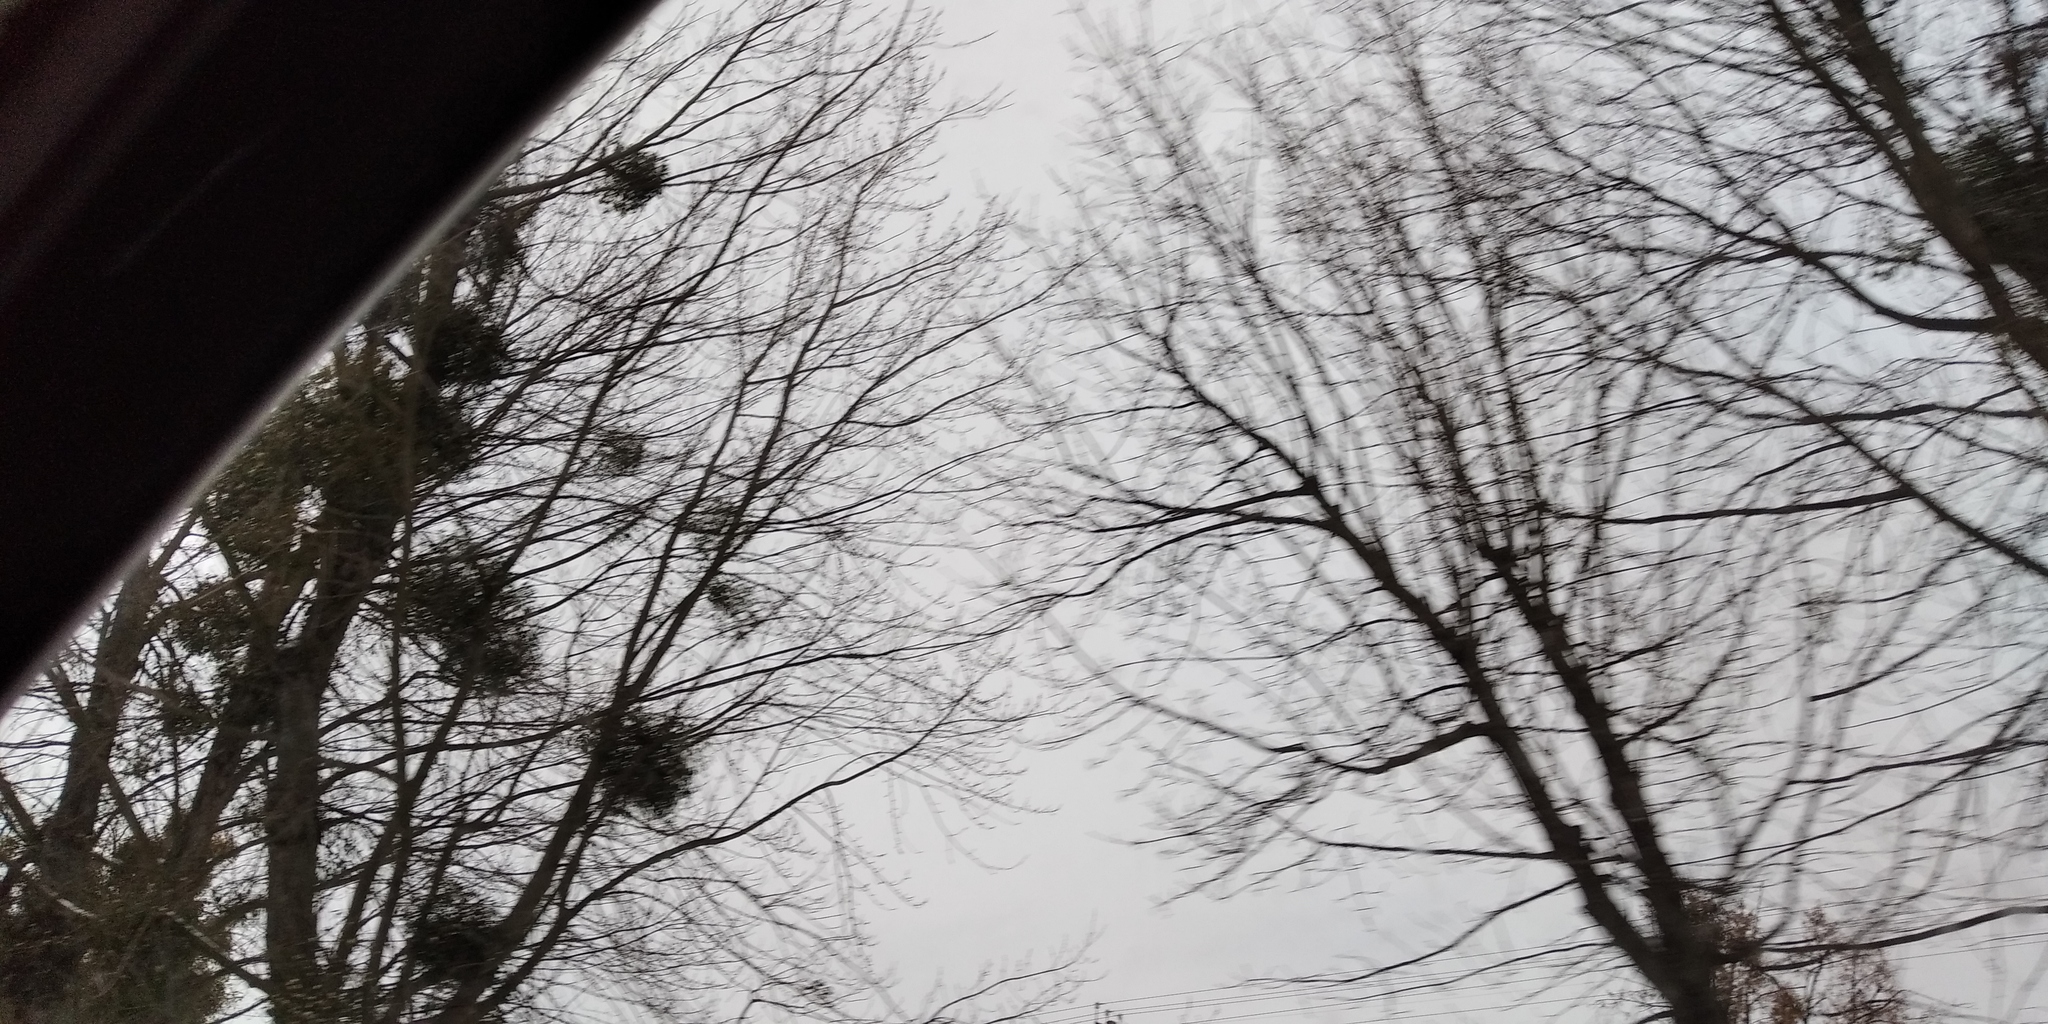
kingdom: Plantae
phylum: Tracheophyta
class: Magnoliopsida
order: Santalales
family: Viscaceae
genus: Viscum
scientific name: Viscum album
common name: Mistletoe
